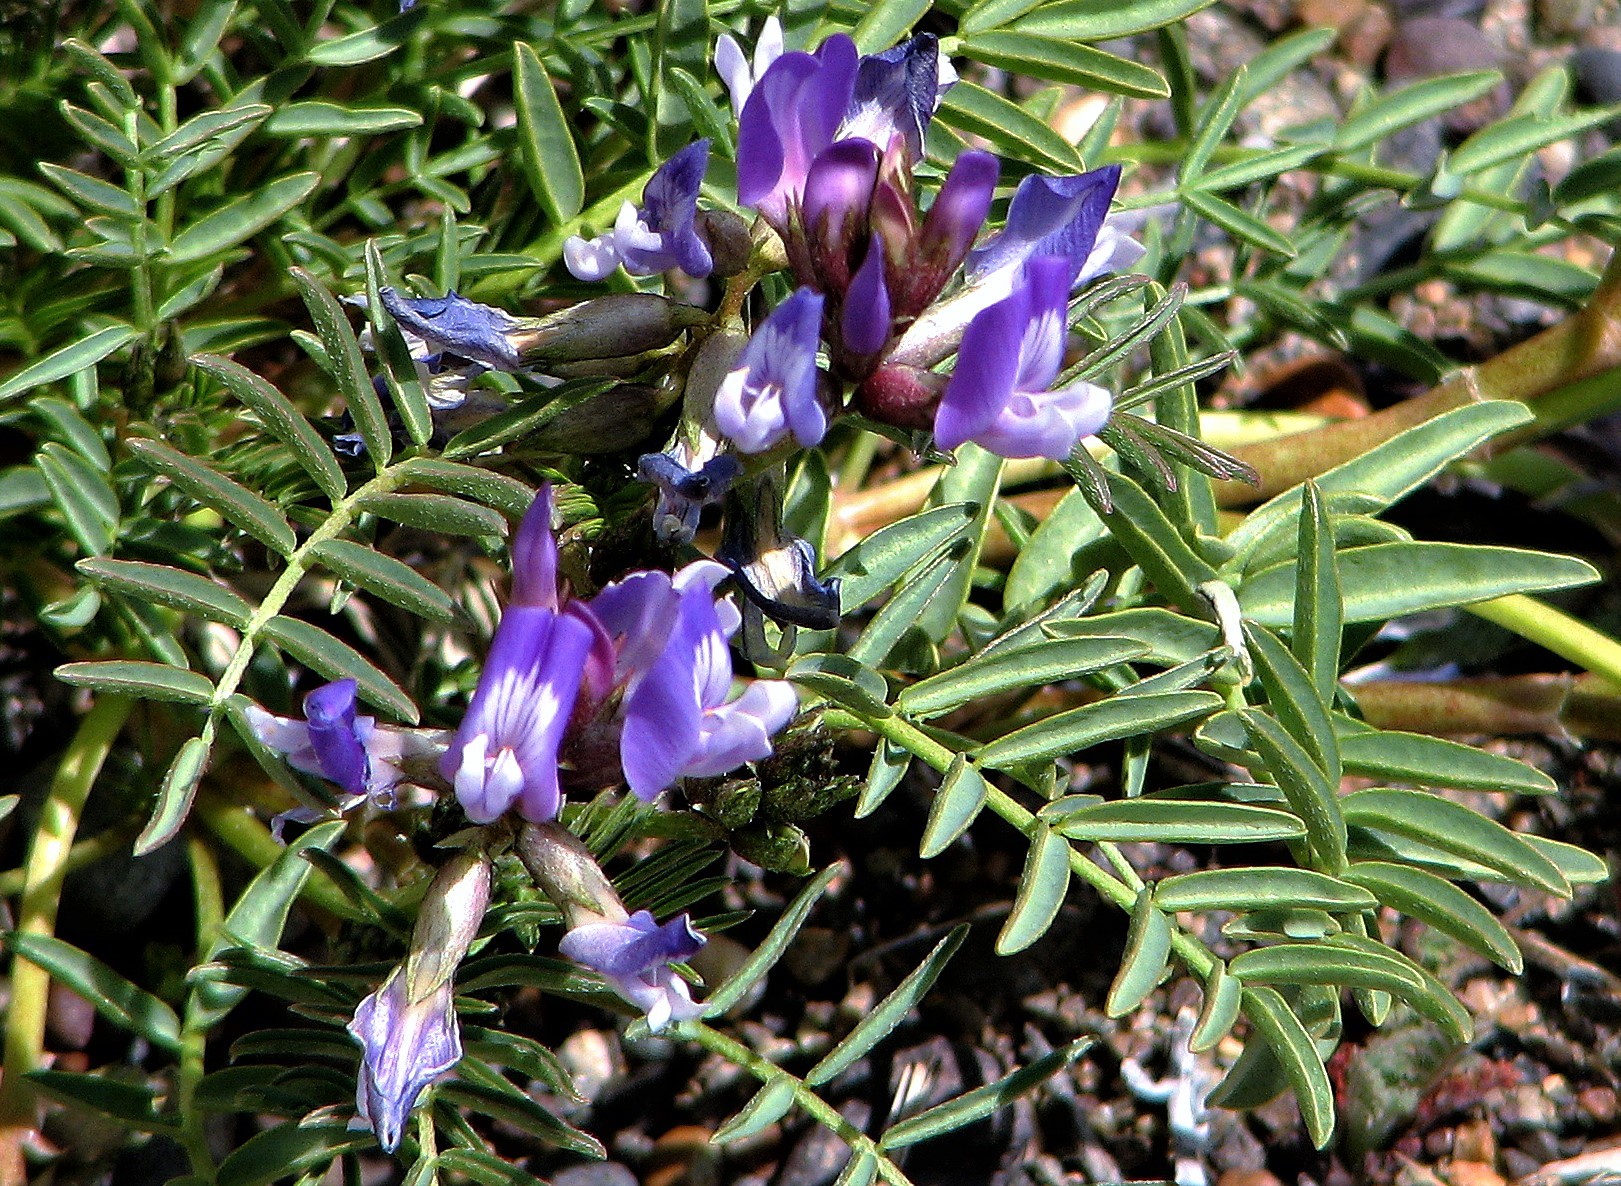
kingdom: Plantae
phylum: Tracheophyta
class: Magnoliopsida
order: Fabales
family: Fabaceae
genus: Astragalus
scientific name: Astragalus cruckshanksii
